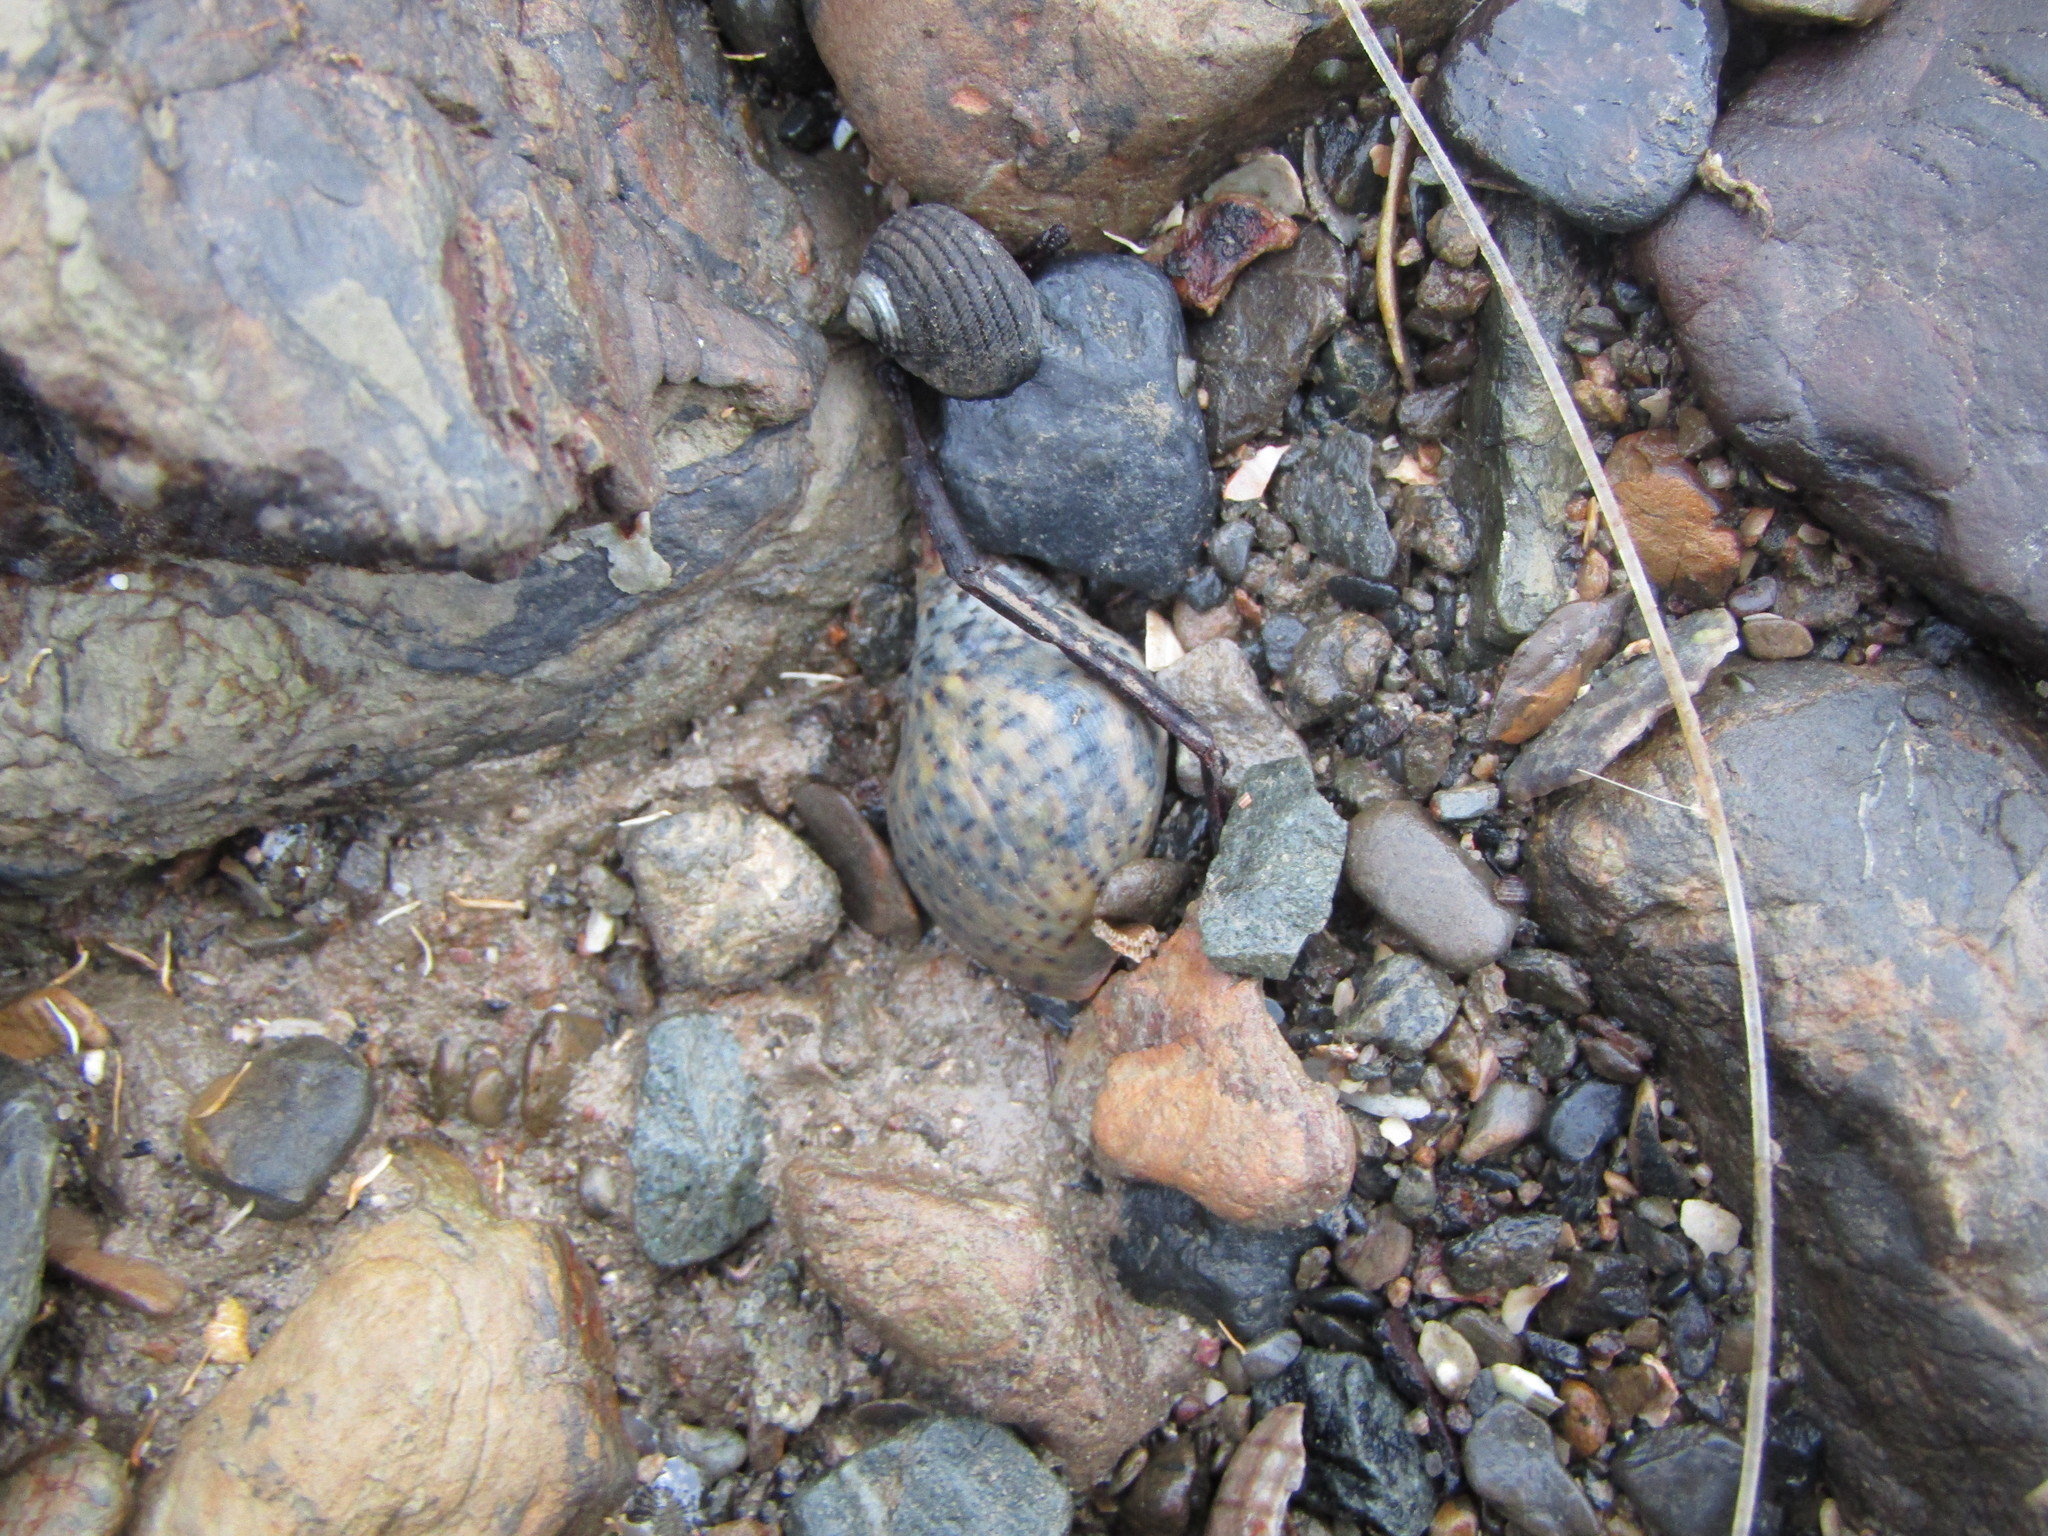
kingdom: Animalia
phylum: Mollusca
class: Gastropoda
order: Neogastropoda
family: Cominellidae
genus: Cominella
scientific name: Cominella maculosa
